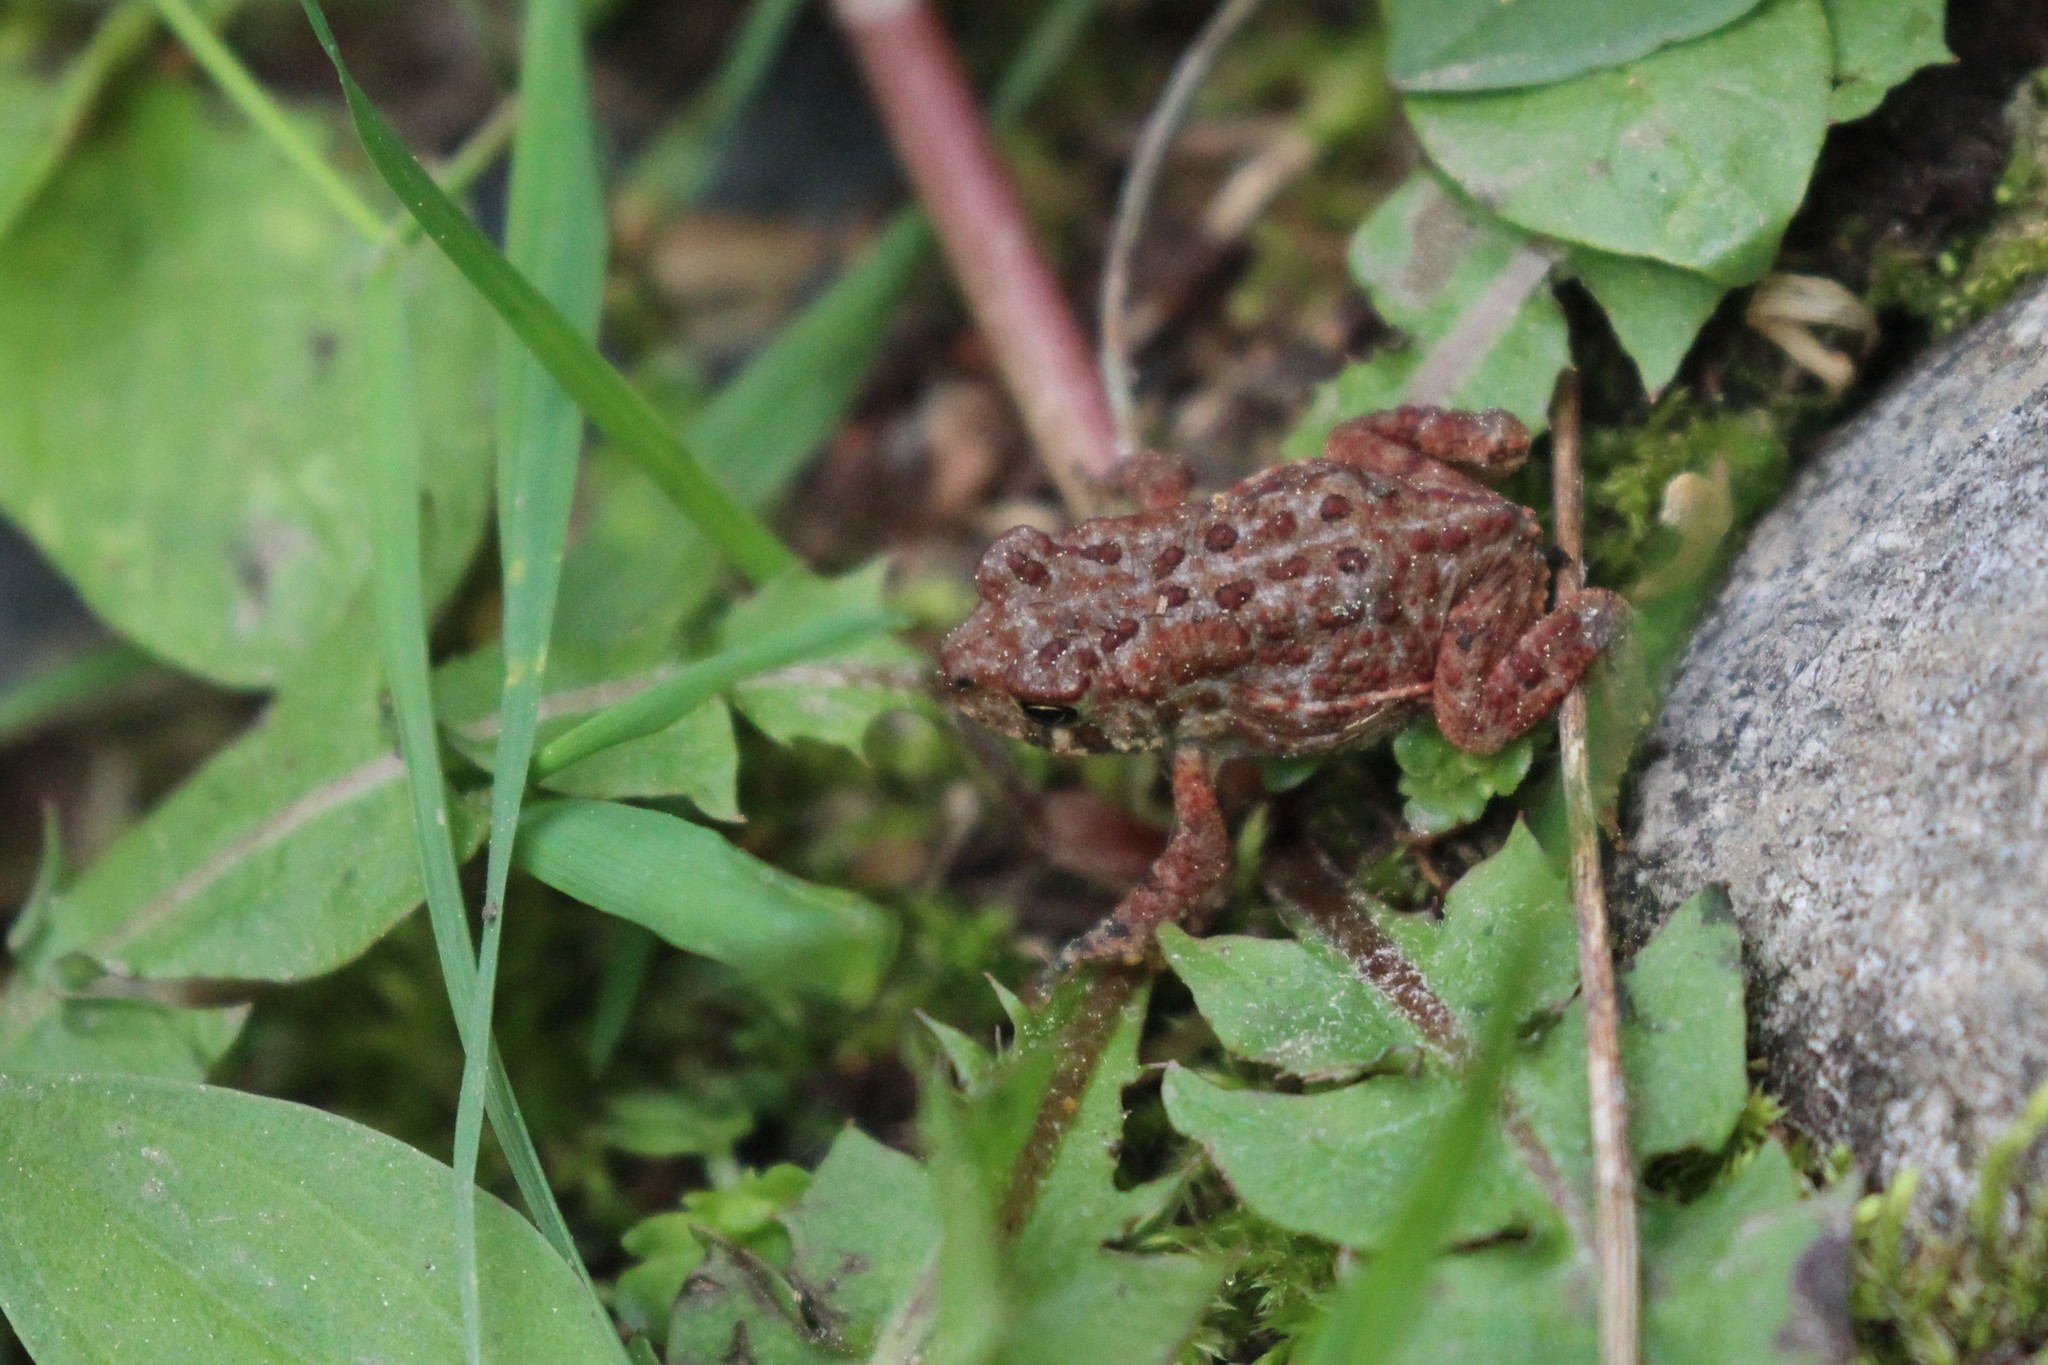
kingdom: Animalia
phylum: Chordata
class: Amphibia
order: Anura
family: Bufonidae
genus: Anaxyrus
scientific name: Anaxyrus americanus
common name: American toad
